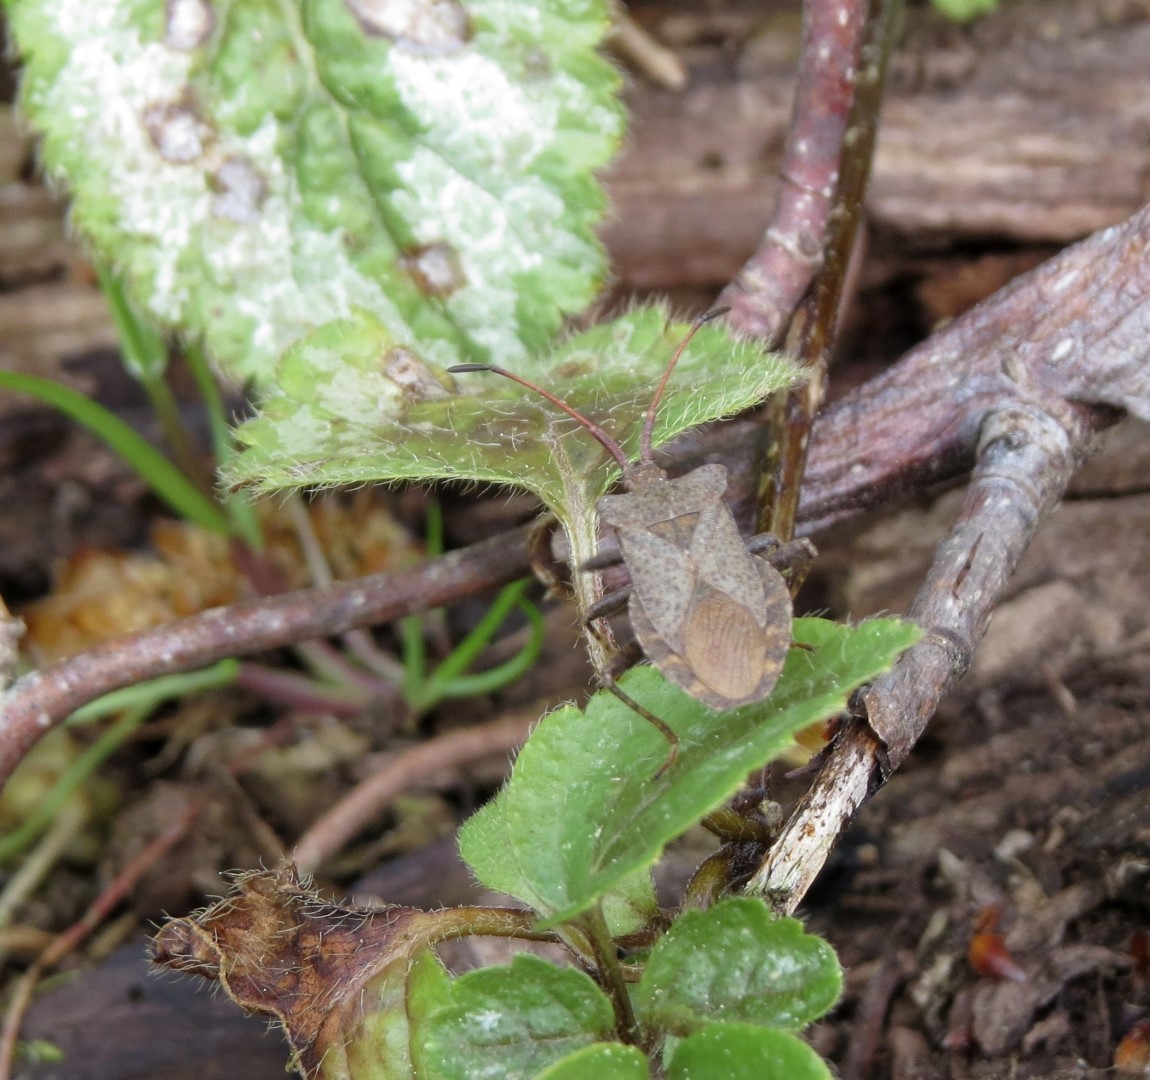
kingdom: Animalia
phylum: Arthropoda
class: Insecta
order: Hemiptera
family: Coreidae
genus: Coreus
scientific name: Coreus marginatus
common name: Dock bug
